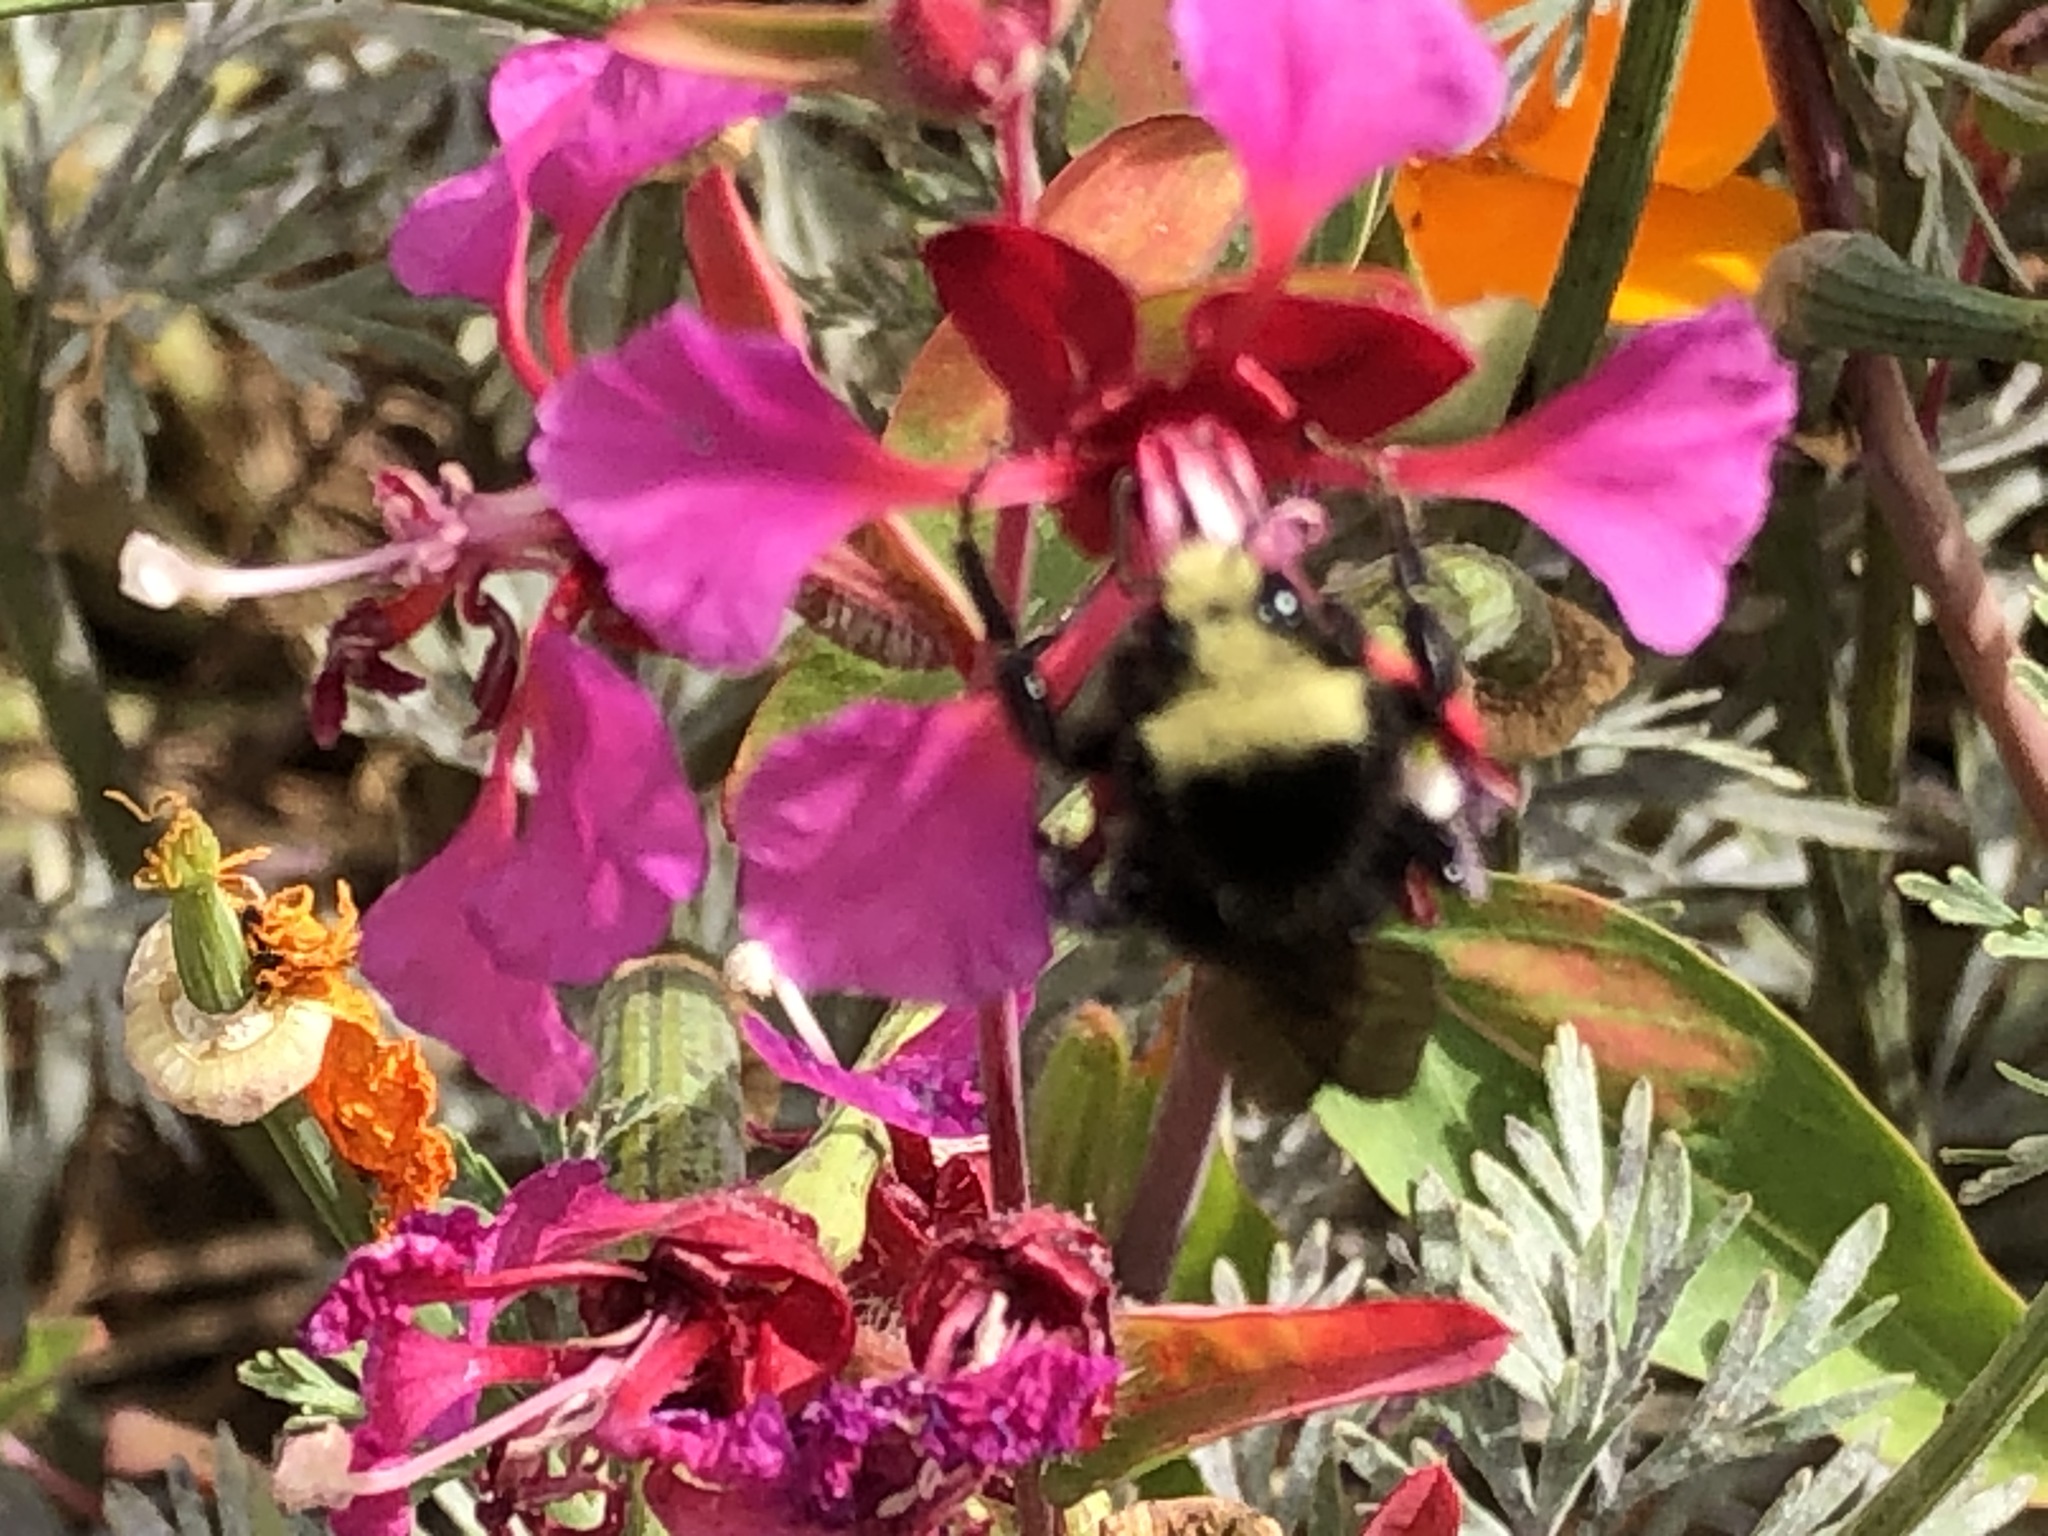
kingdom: Animalia
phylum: Arthropoda
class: Insecta
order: Hymenoptera
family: Apidae
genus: Bombus
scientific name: Bombus vosnesenskii
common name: Vosnesensky bumble bee
